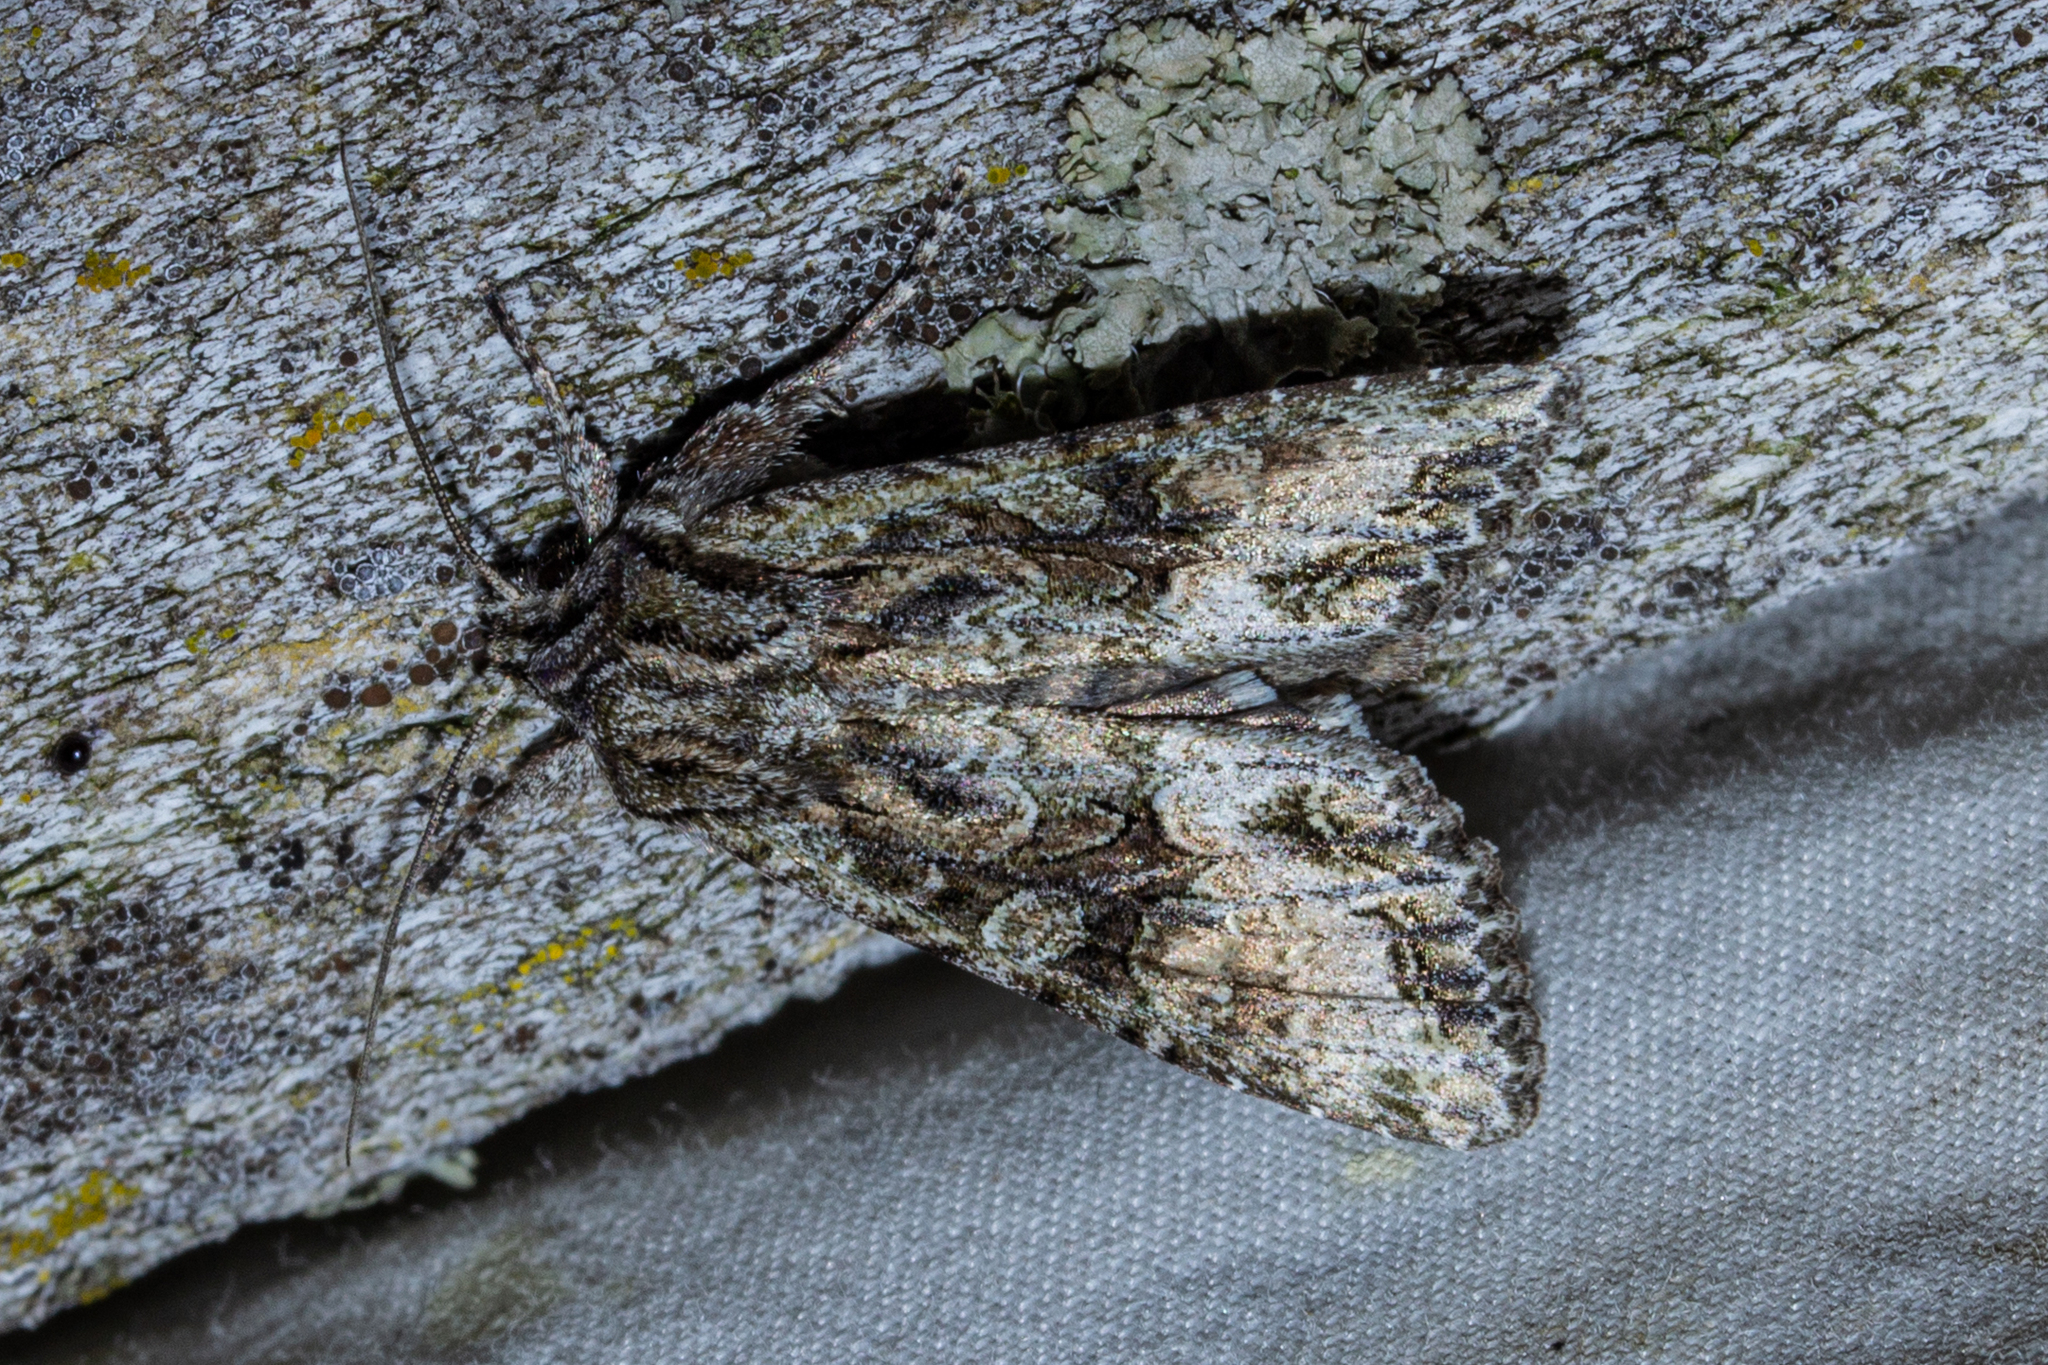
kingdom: Animalia
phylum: Arthropoda
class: Insecta
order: Lepidoptera
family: Noctuidae
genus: Ichneutica
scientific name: Ichneutica mutans
